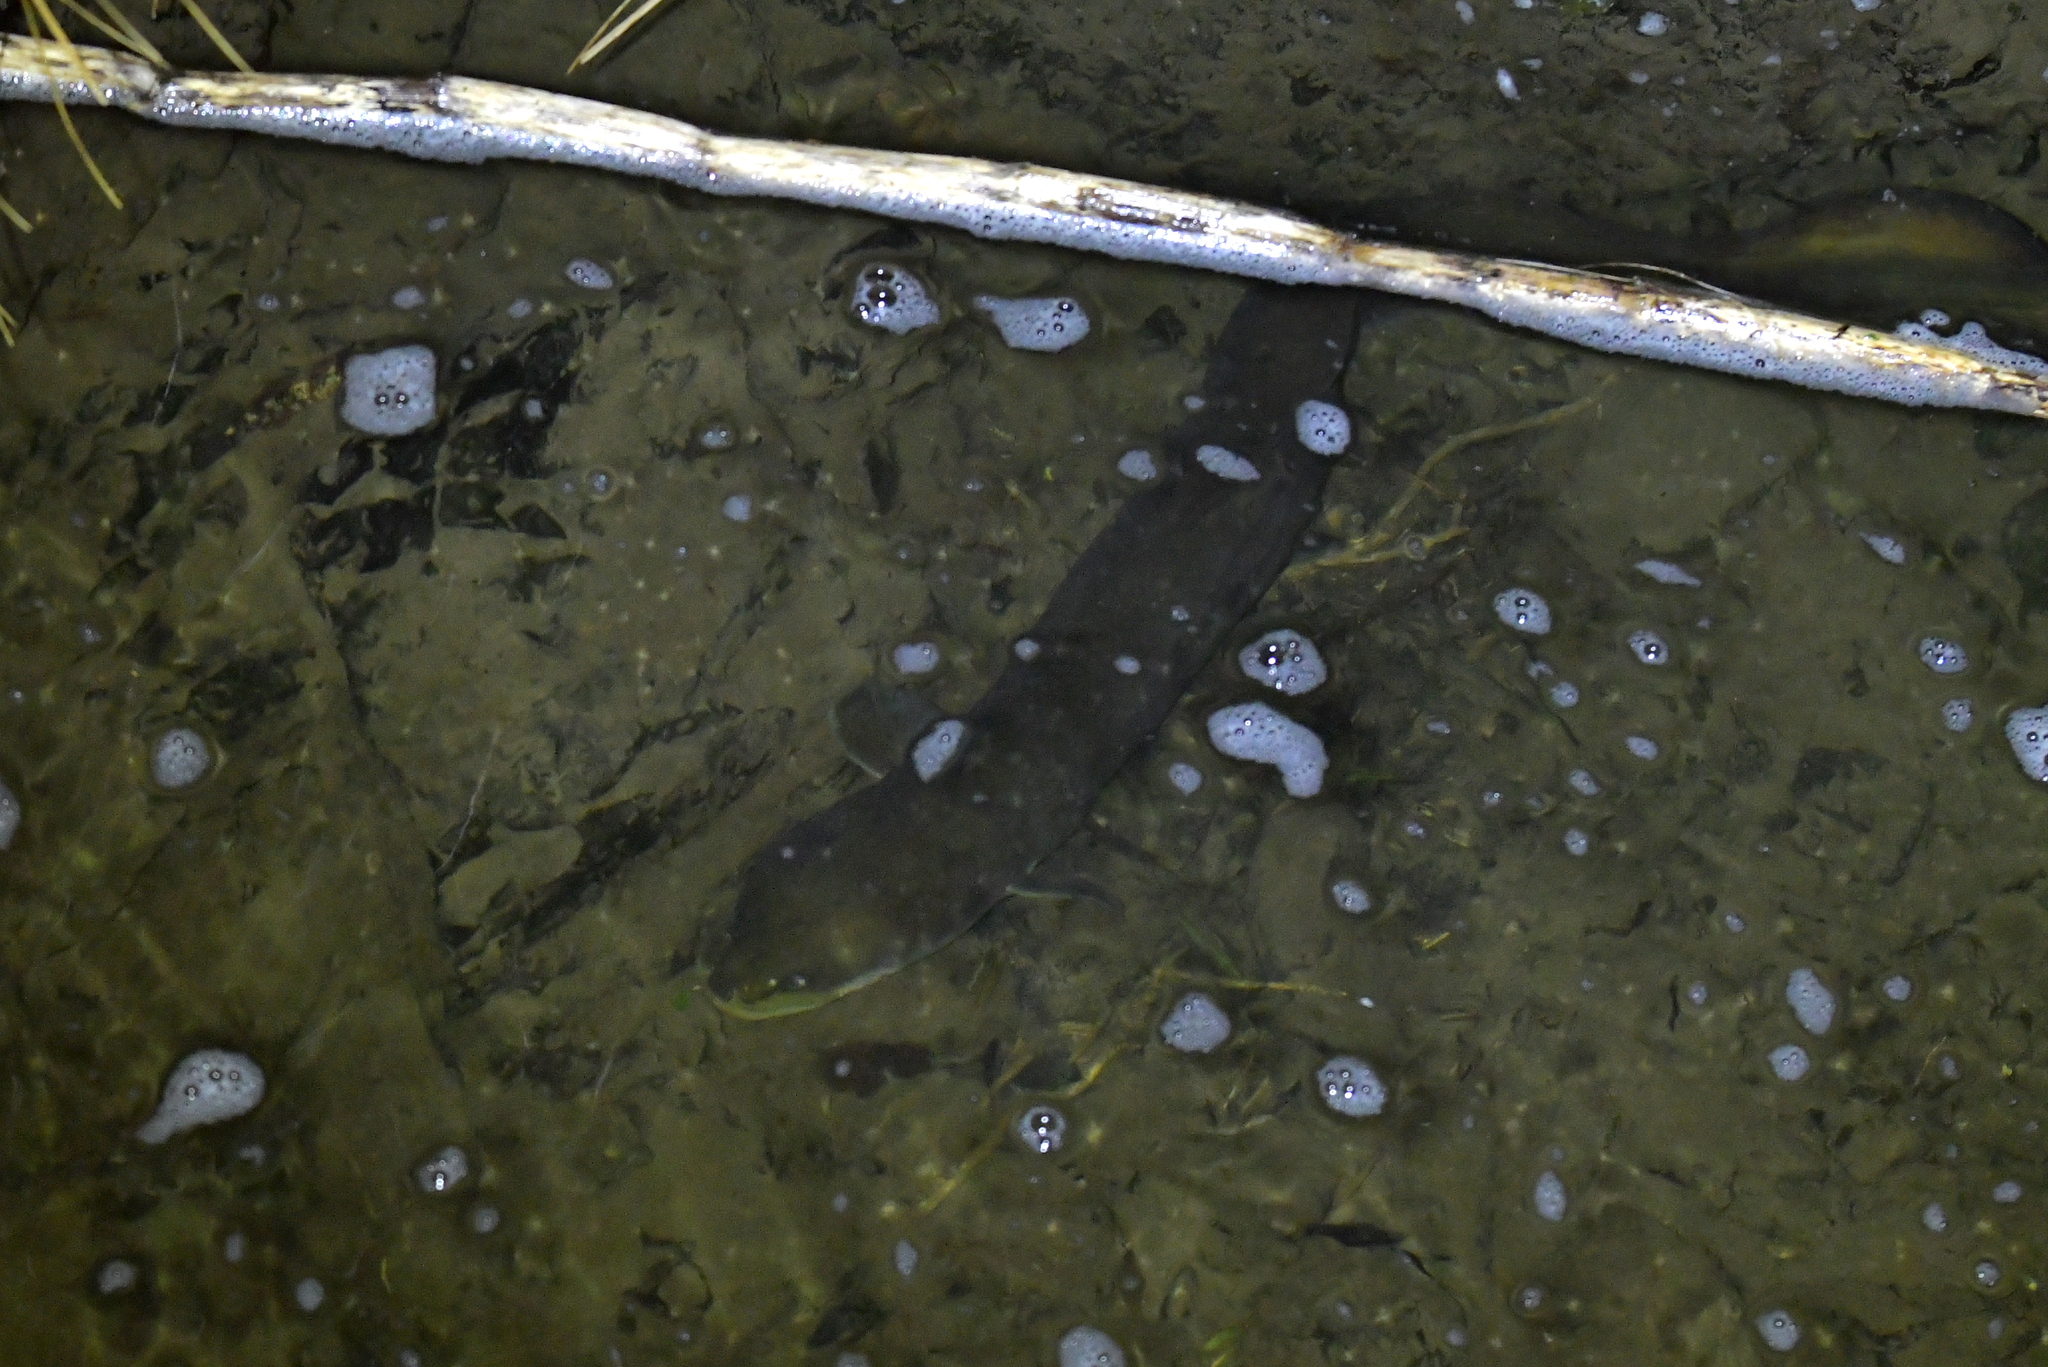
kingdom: Animalia
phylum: Chordata
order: Anguilliformes
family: Anguillidae
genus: Anguilla
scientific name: Anguilla dieffenbachii
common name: New zealand longfin eel
